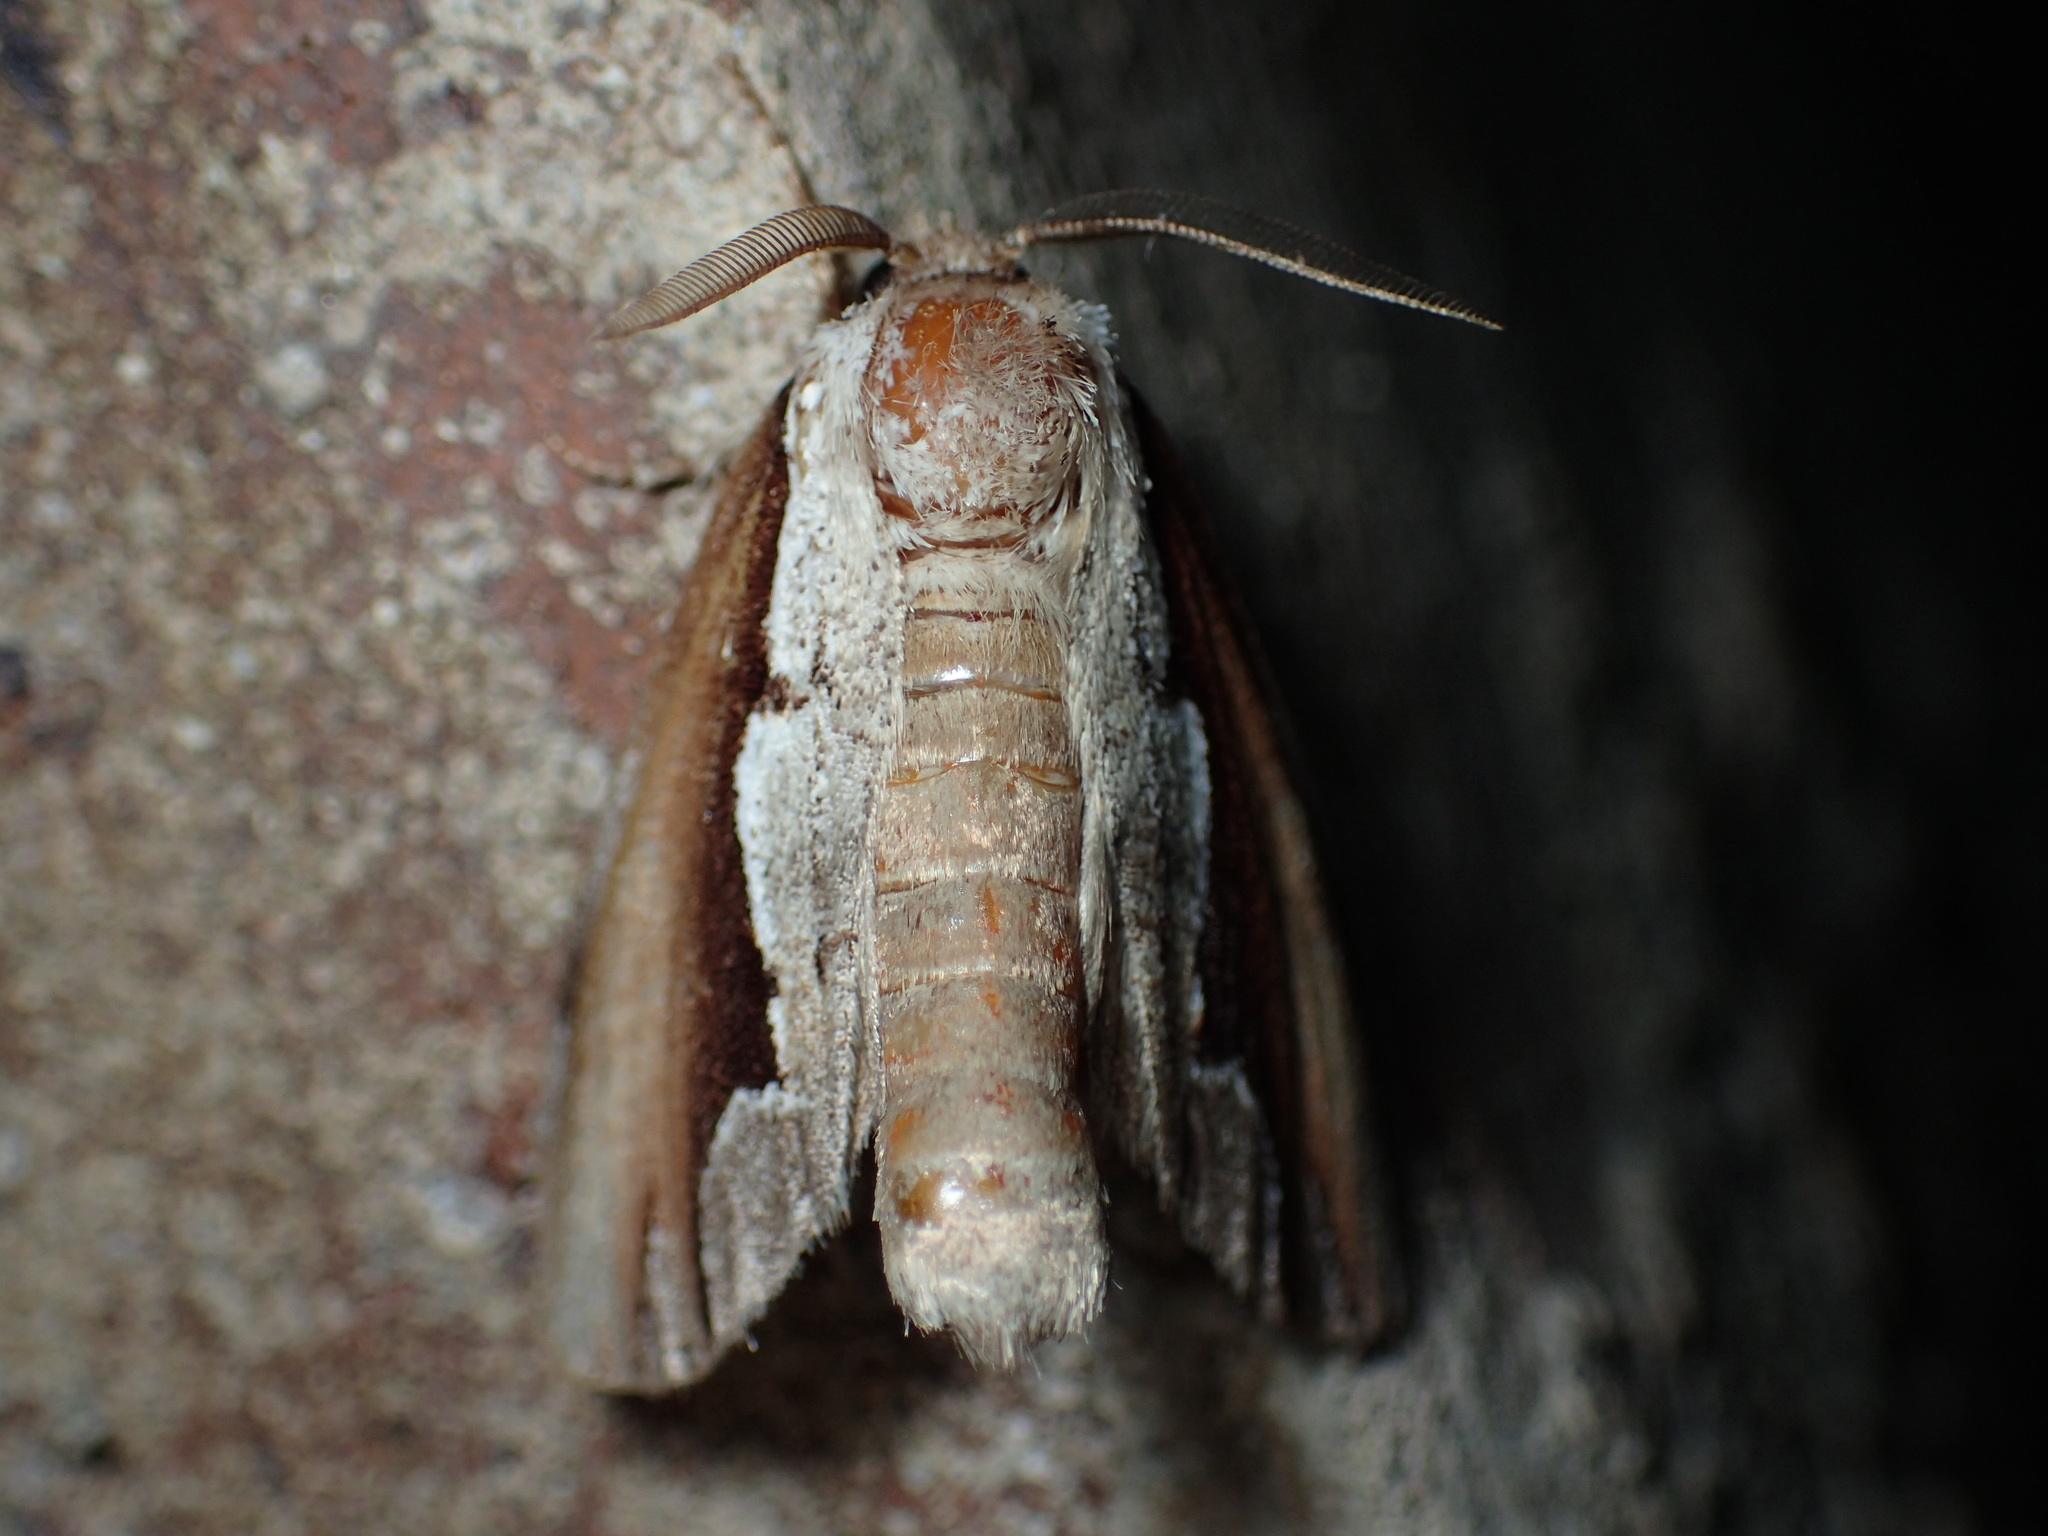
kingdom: Animalia
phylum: Arthropoda
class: Insecta
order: Lepidoptera
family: Notodontidae
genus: Nerice
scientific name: Nerice bidentata
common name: Double-toothed prominent
